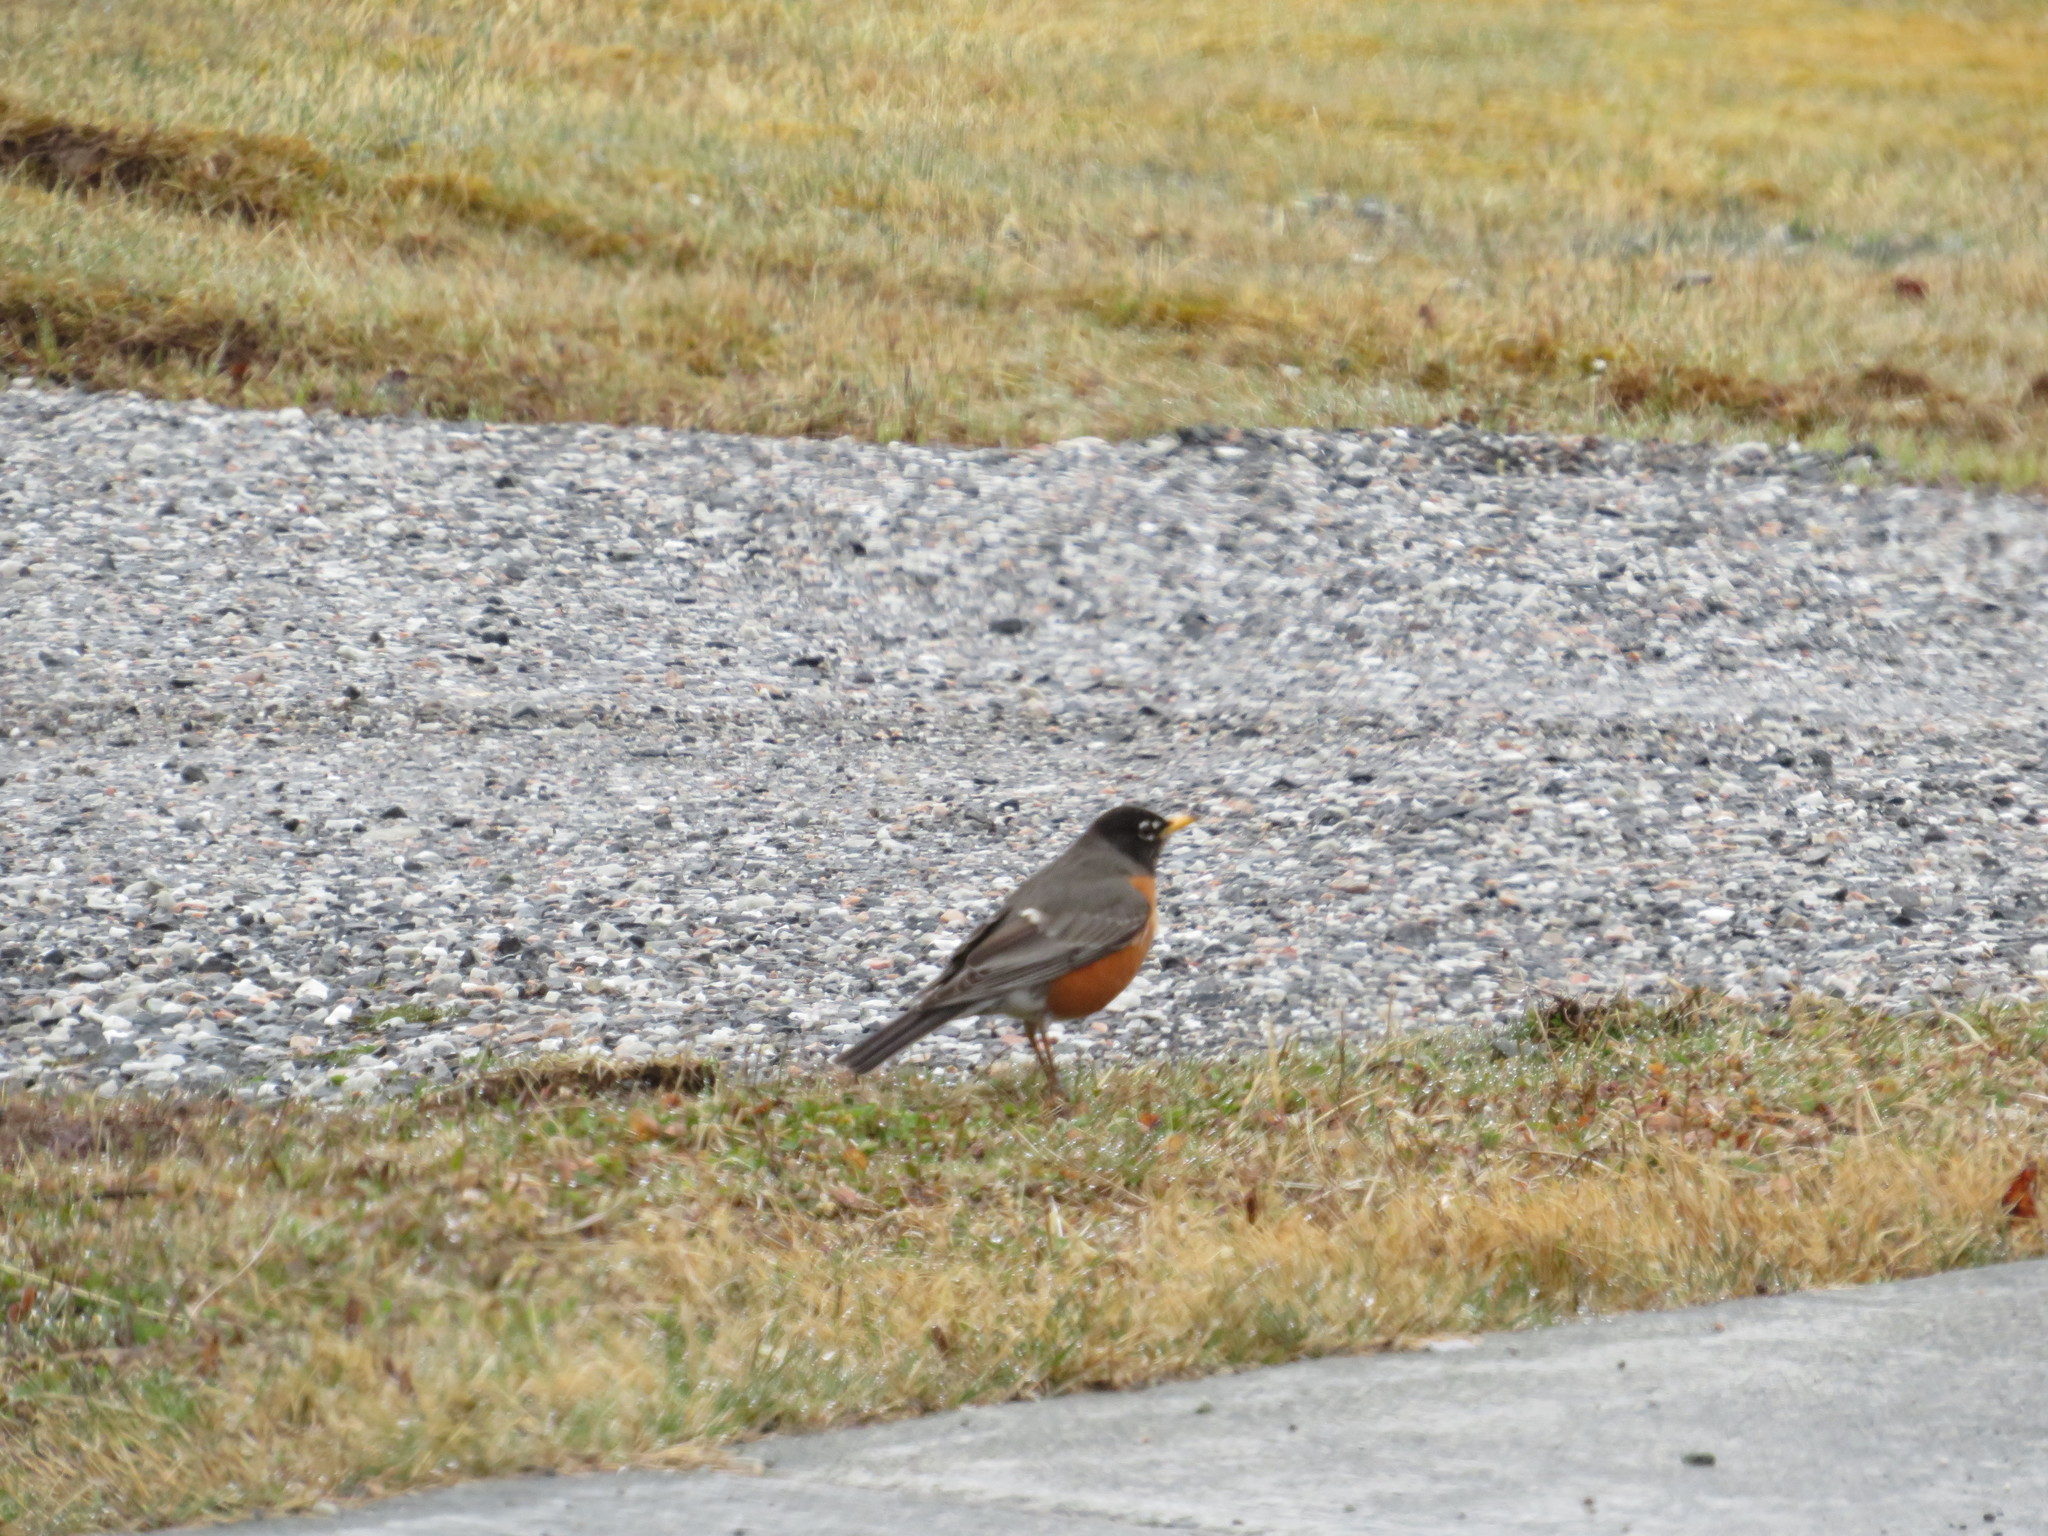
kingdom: Animalia
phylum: Chordata
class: Aves
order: Passeriformes
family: Turdidae
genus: Turdus
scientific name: Turdus migratorius
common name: American robin
